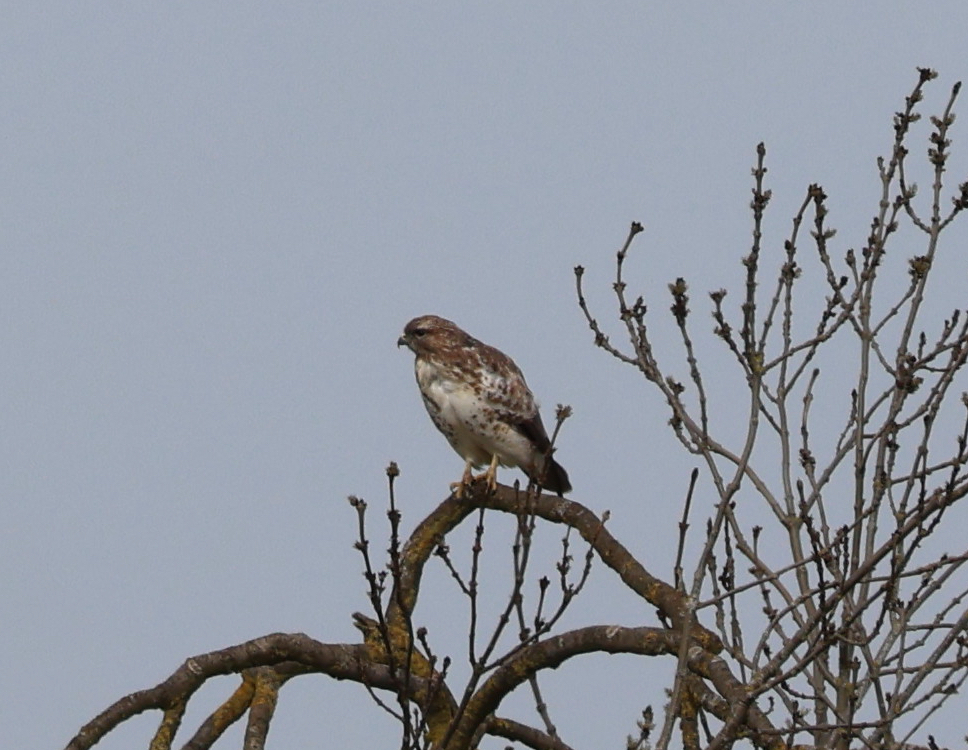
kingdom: Animalia
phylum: Chordata
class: Aves
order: Accipitriformes
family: Accipitridae
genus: Buteo
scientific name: Buteo buteo
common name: Common buzzard
